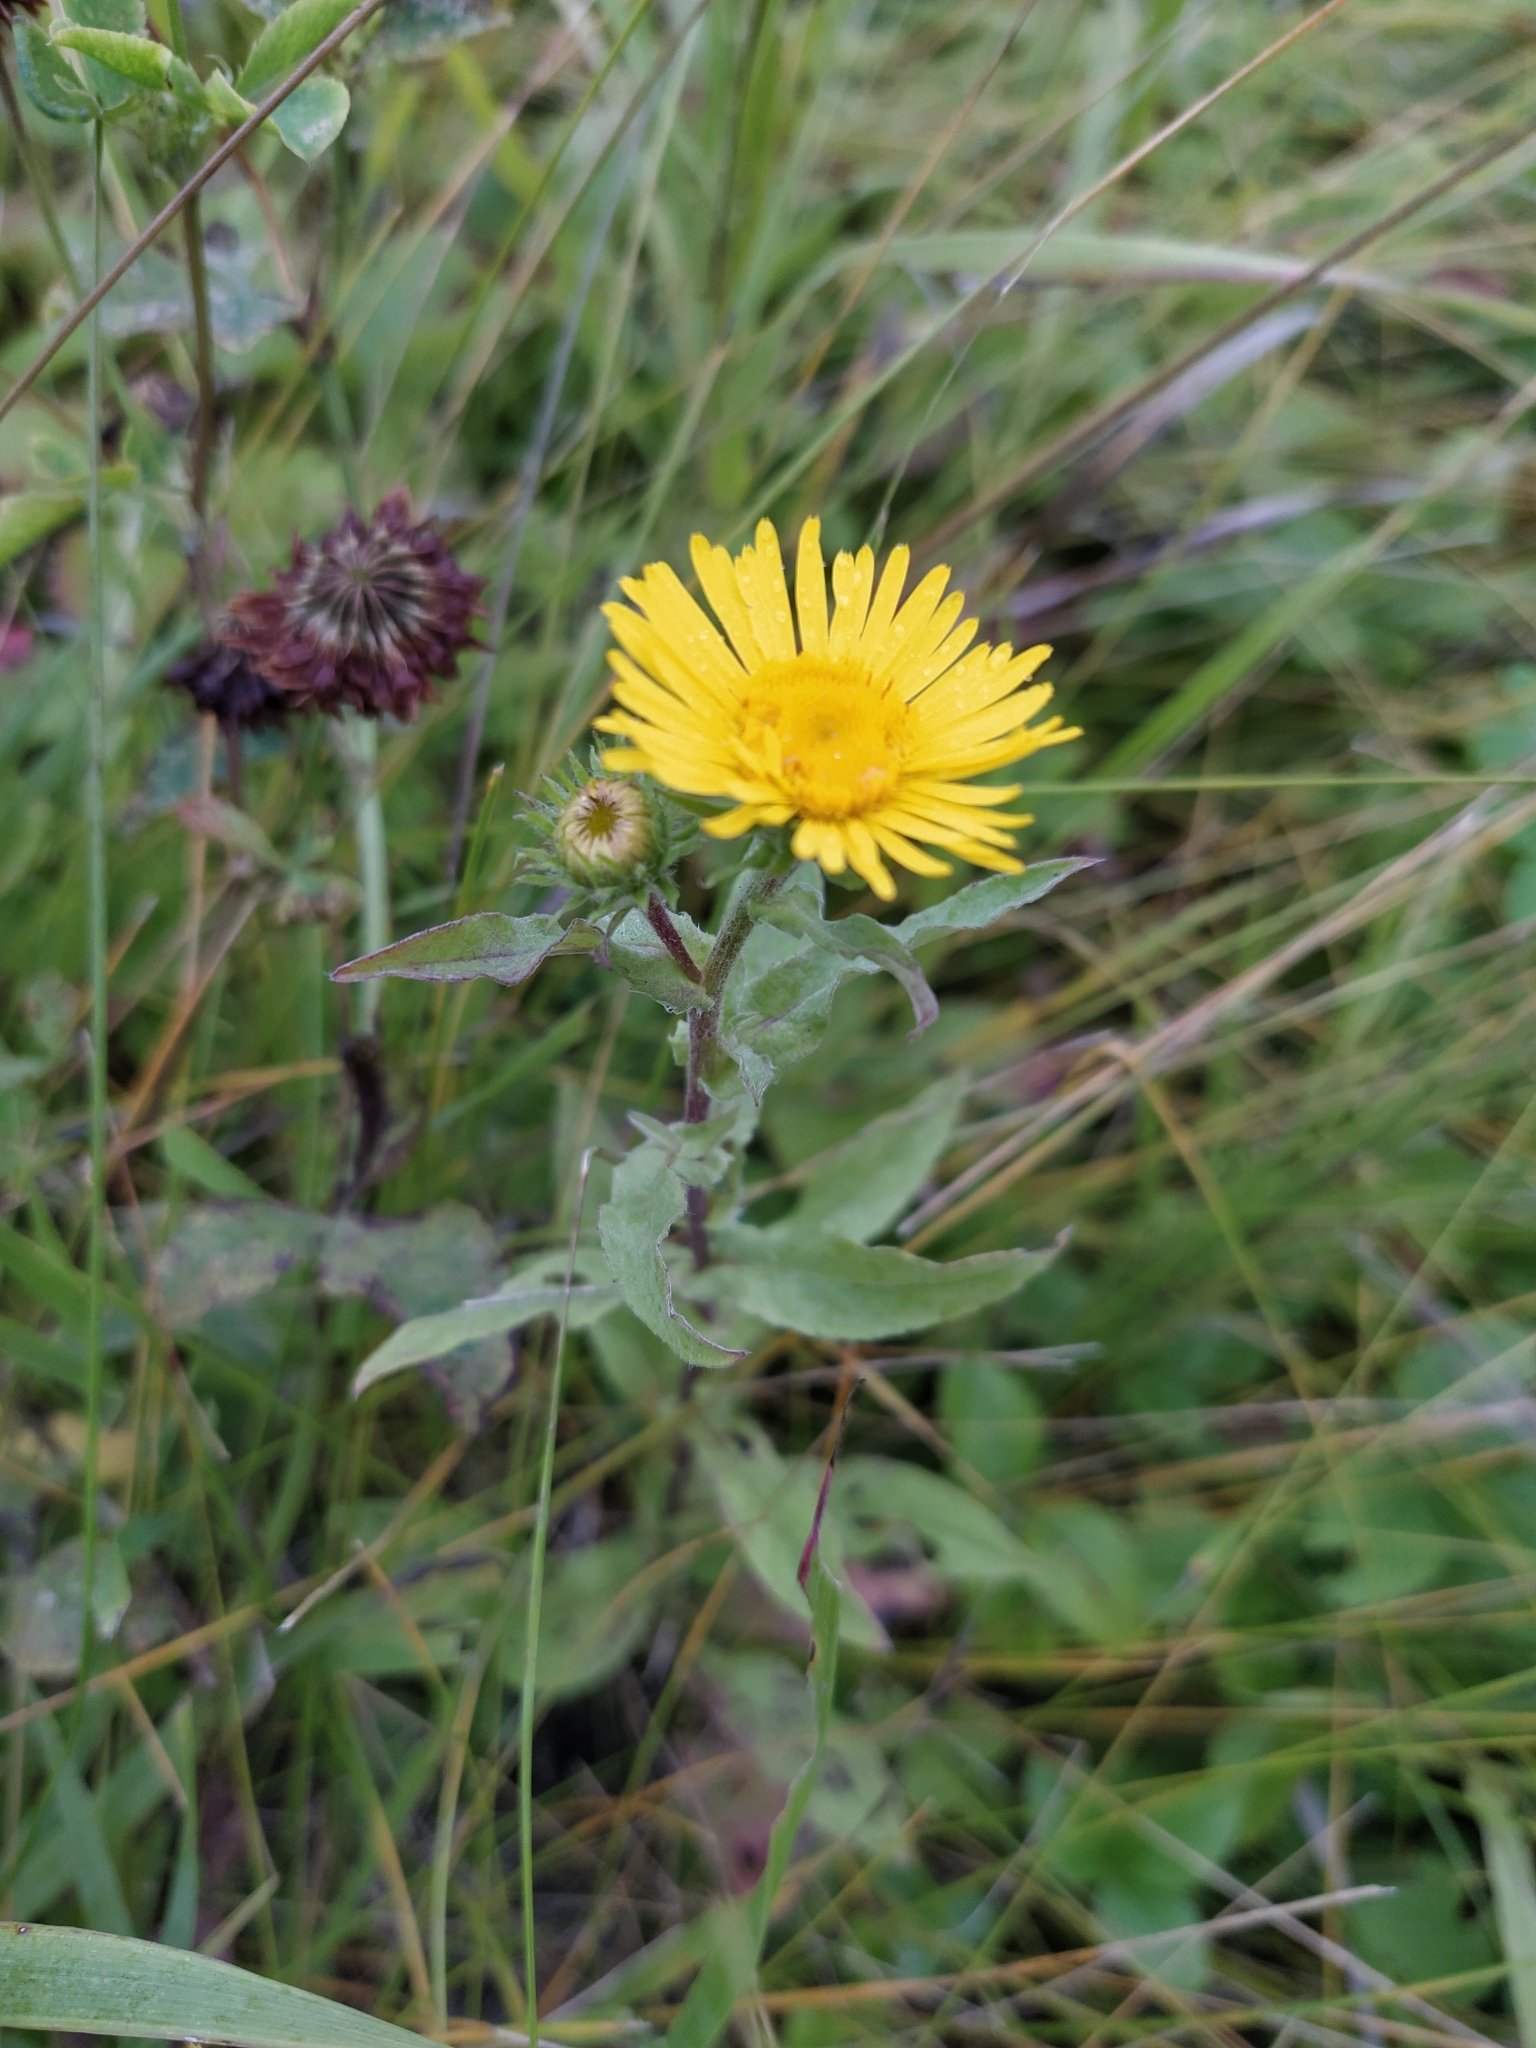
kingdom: Plantae
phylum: Tracheophyta
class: Magnoliopsida
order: Asterales
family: Asteraceae
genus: Pentanema
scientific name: Pentanema britannicum
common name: British elecampane
